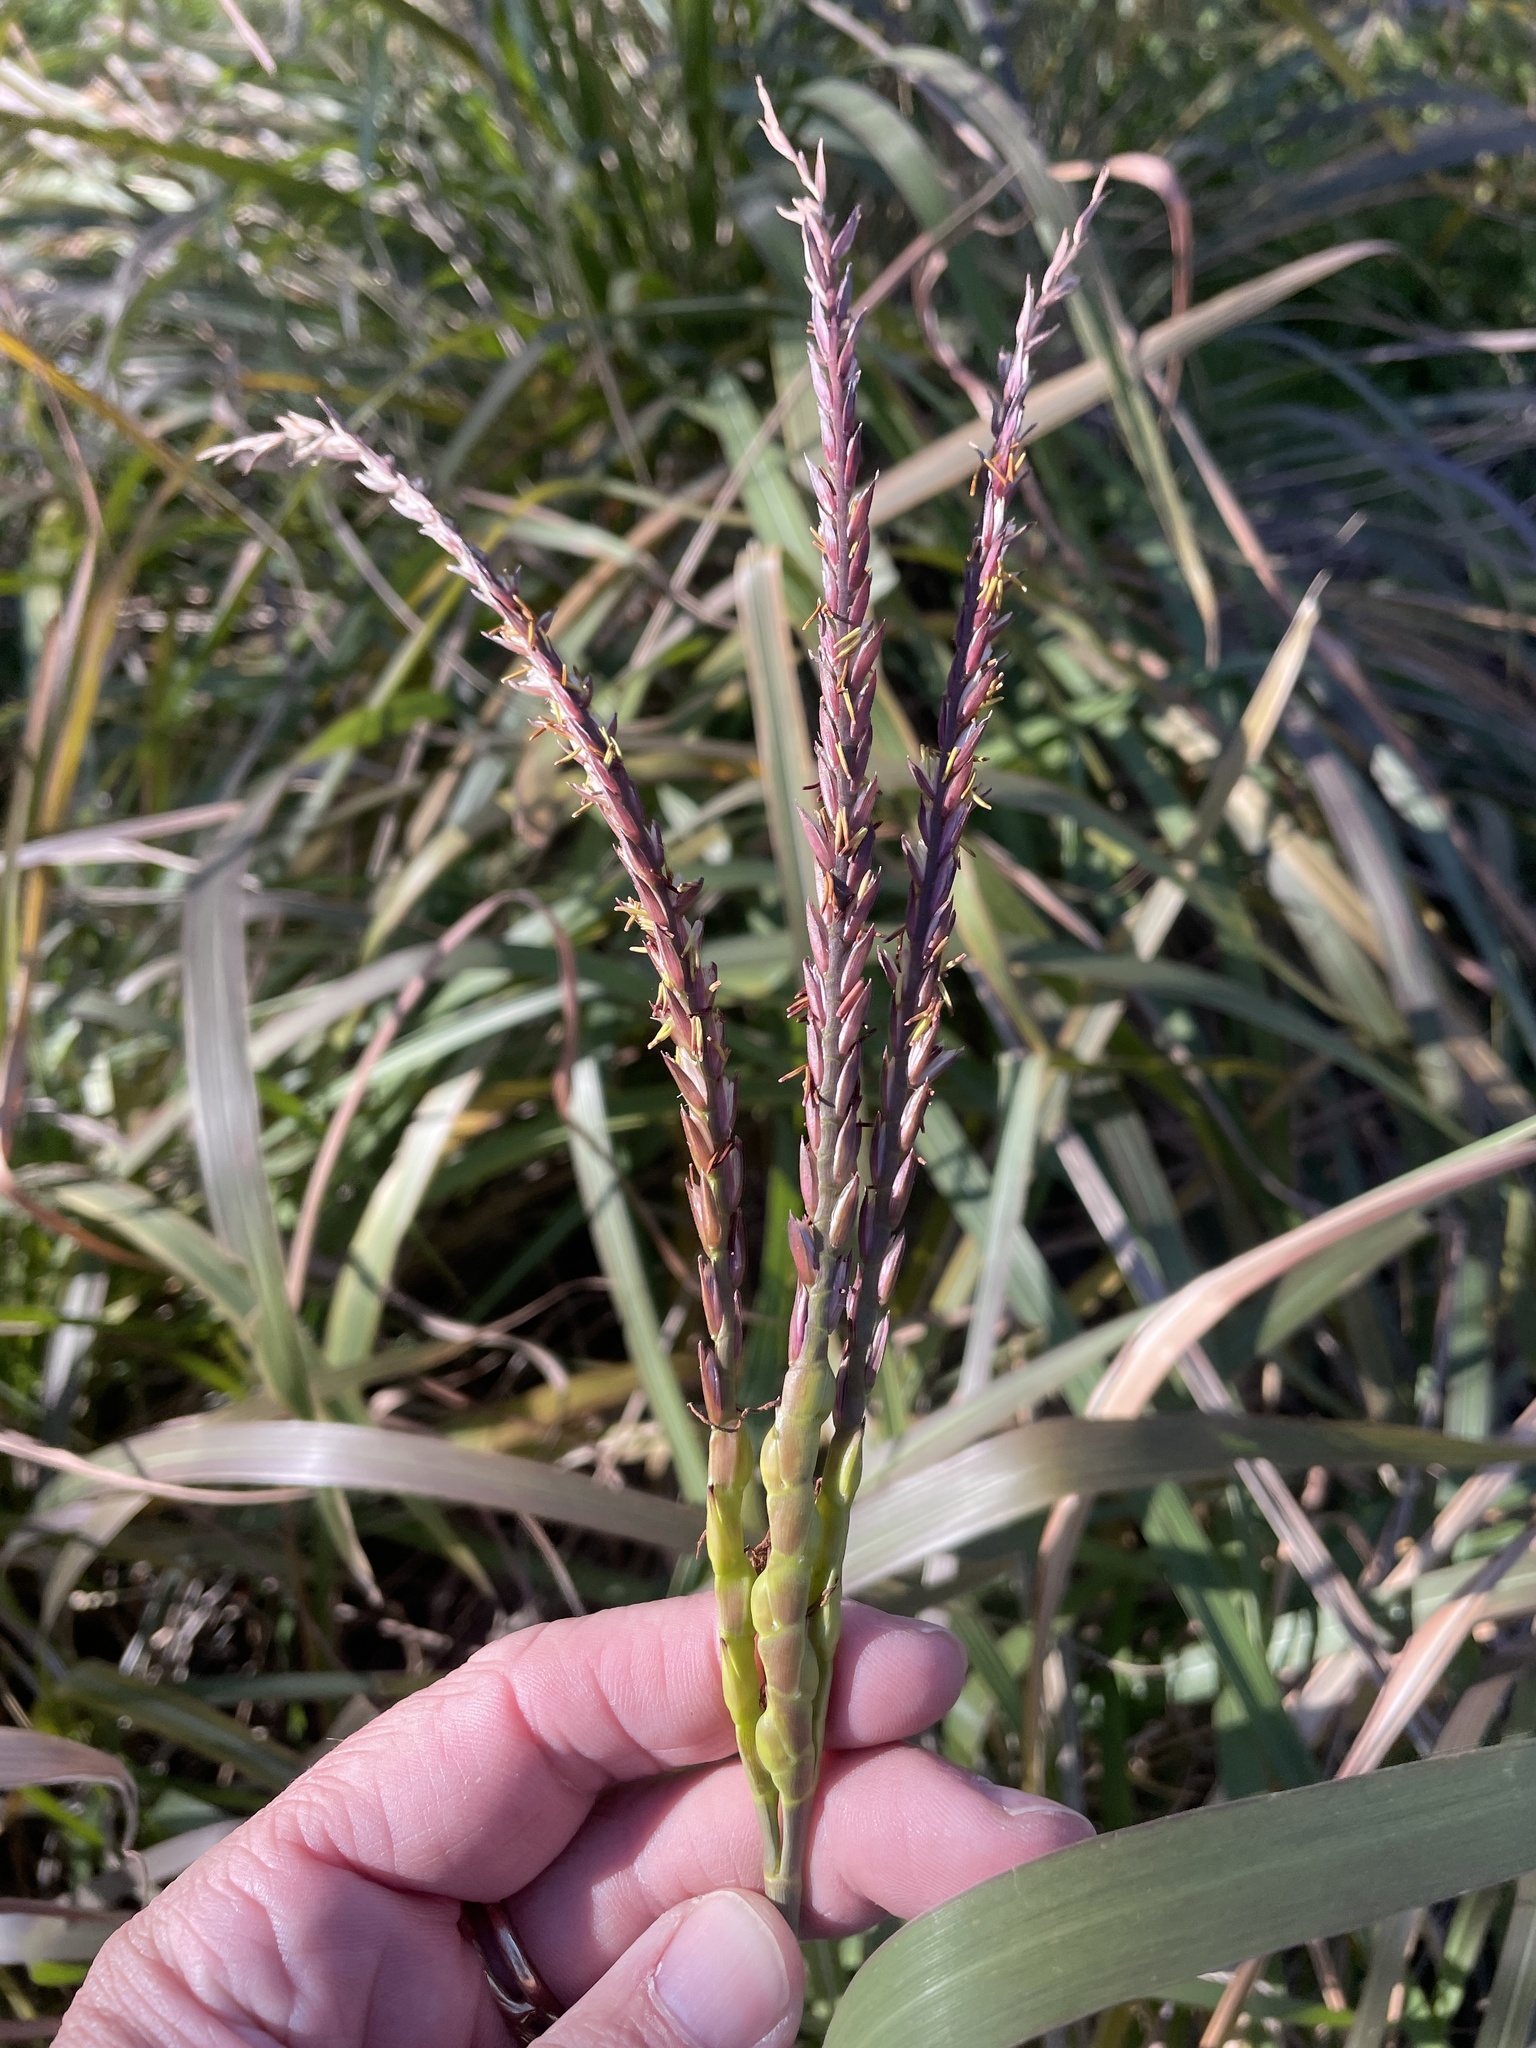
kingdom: Plantae
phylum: Tracheophyta
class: Liliopsida
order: Poales
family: Poaceae
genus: Tripsacum
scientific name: Tripsacum dactyloides
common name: Buffalo-grass
